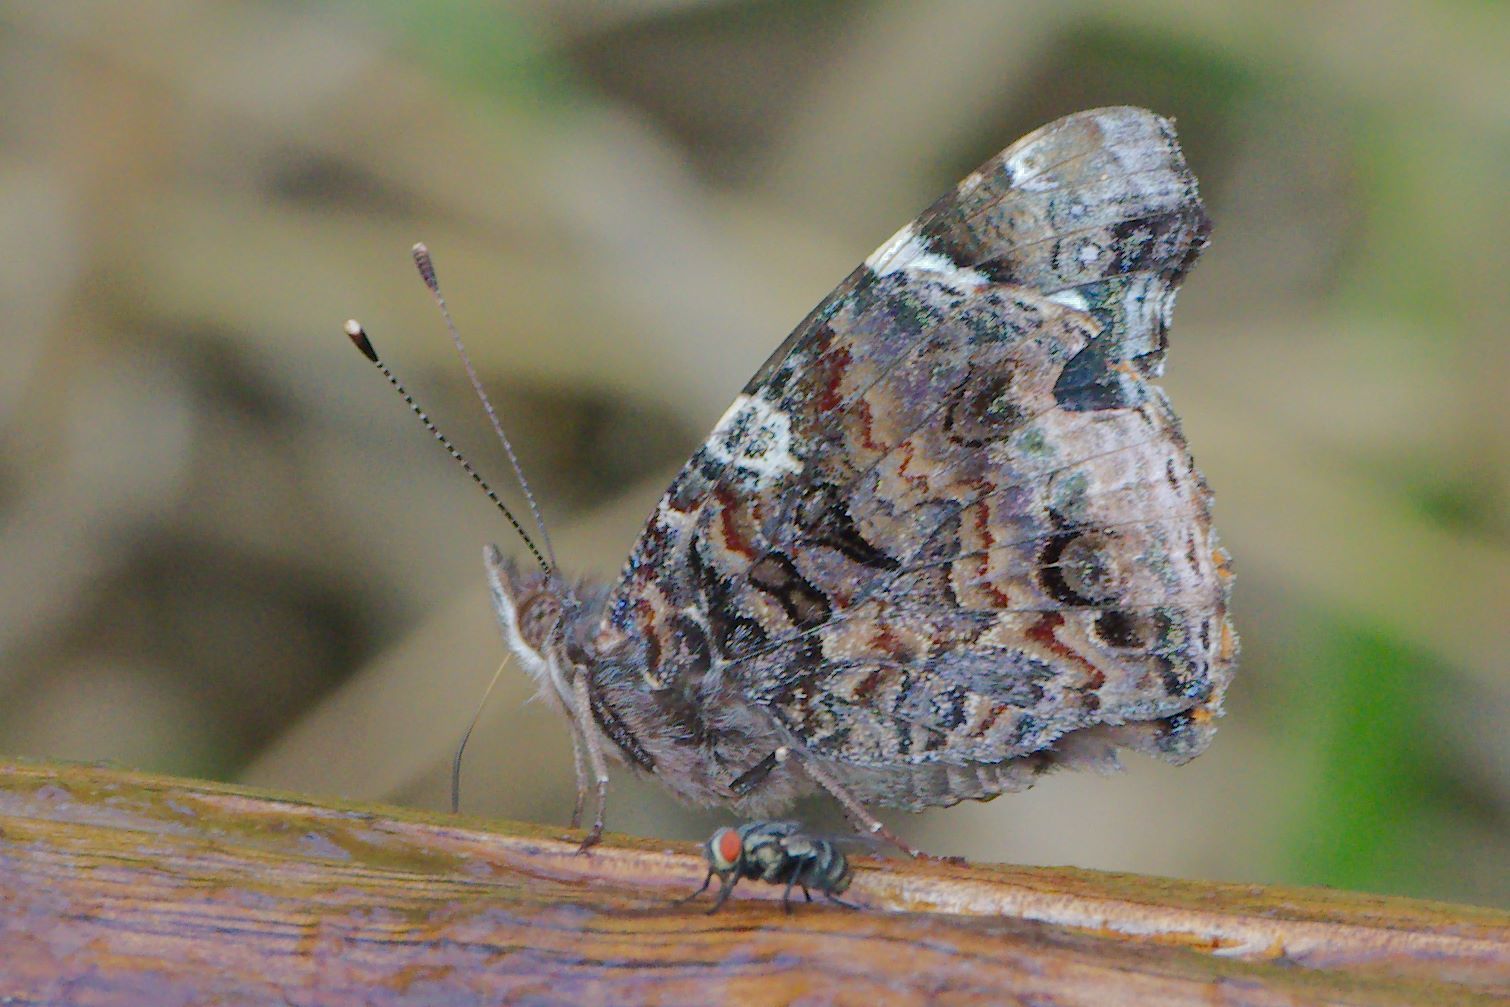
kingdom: Animalia
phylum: Arthropoda
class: Insecta
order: Lepidoptera
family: Nymphalidae
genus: Vanessa
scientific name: Vanessa atalanta
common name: Red admiral
